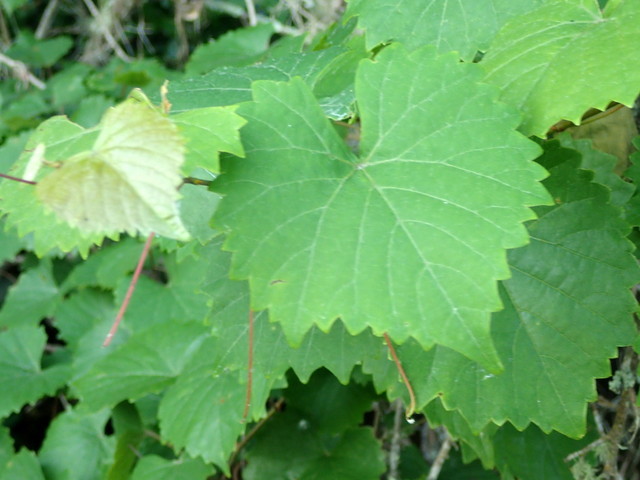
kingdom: Plantae
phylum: Tracheophyta
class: Magnoliopsida
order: Vitales
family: Vitaceae
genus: Vitis
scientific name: Vitis rotundifolia
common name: Muscadine grape
